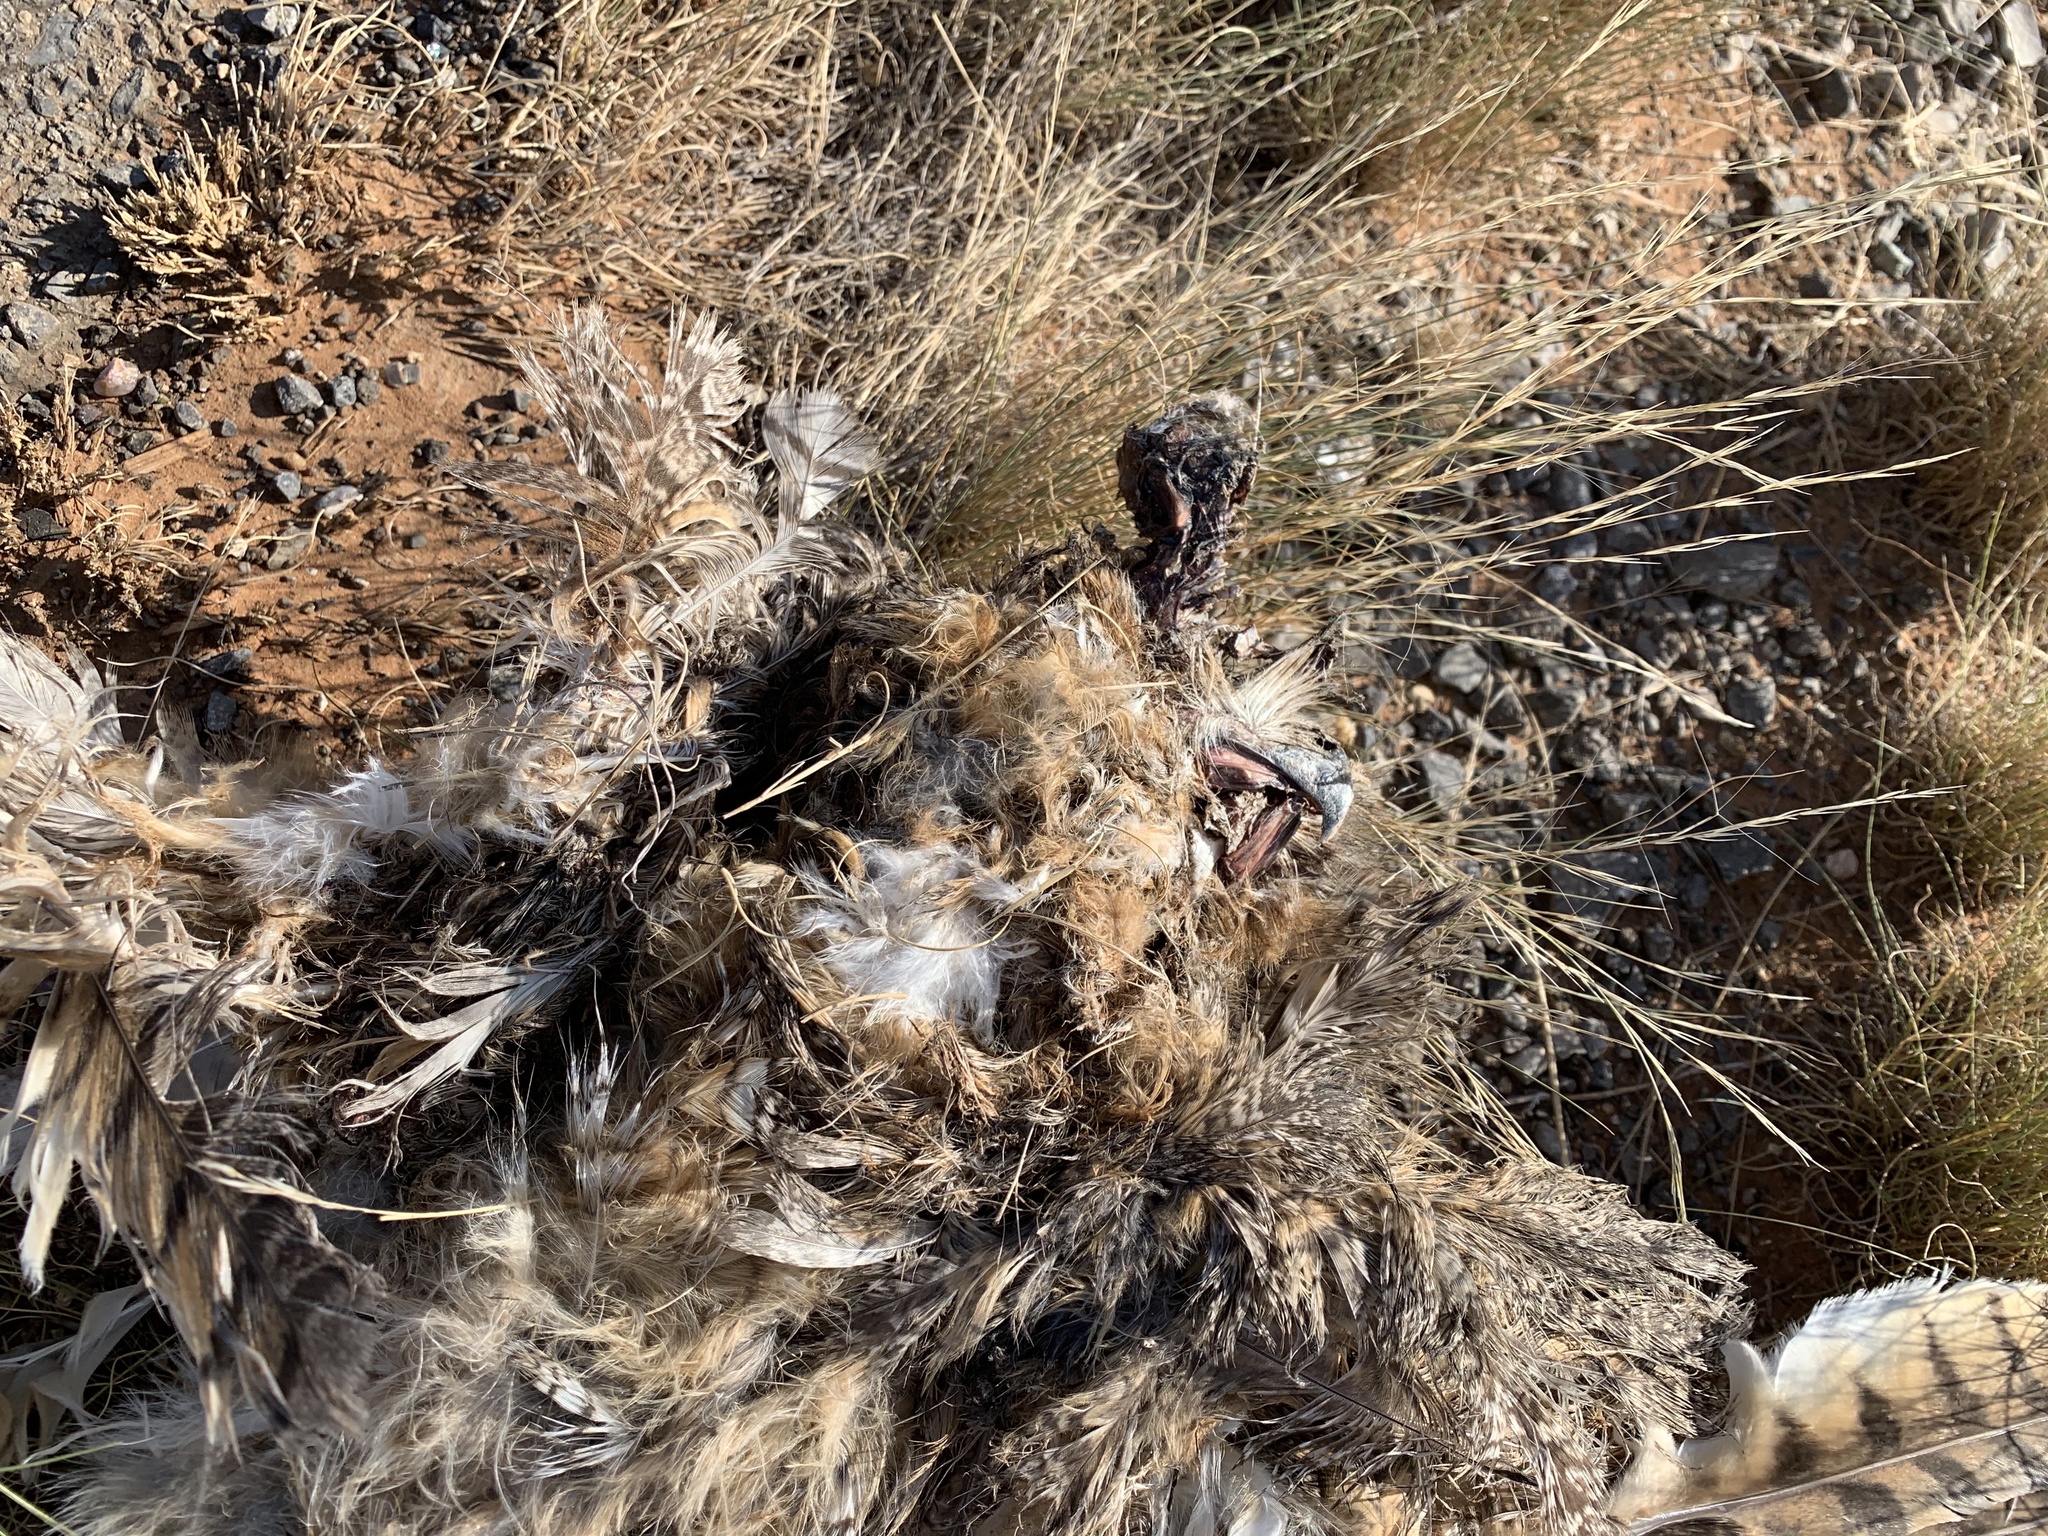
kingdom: Animalia
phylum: Chordata
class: Aves
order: Strigiformes
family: Strigidae
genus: Bubo
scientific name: Bubo virginianus
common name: Great horned owl
